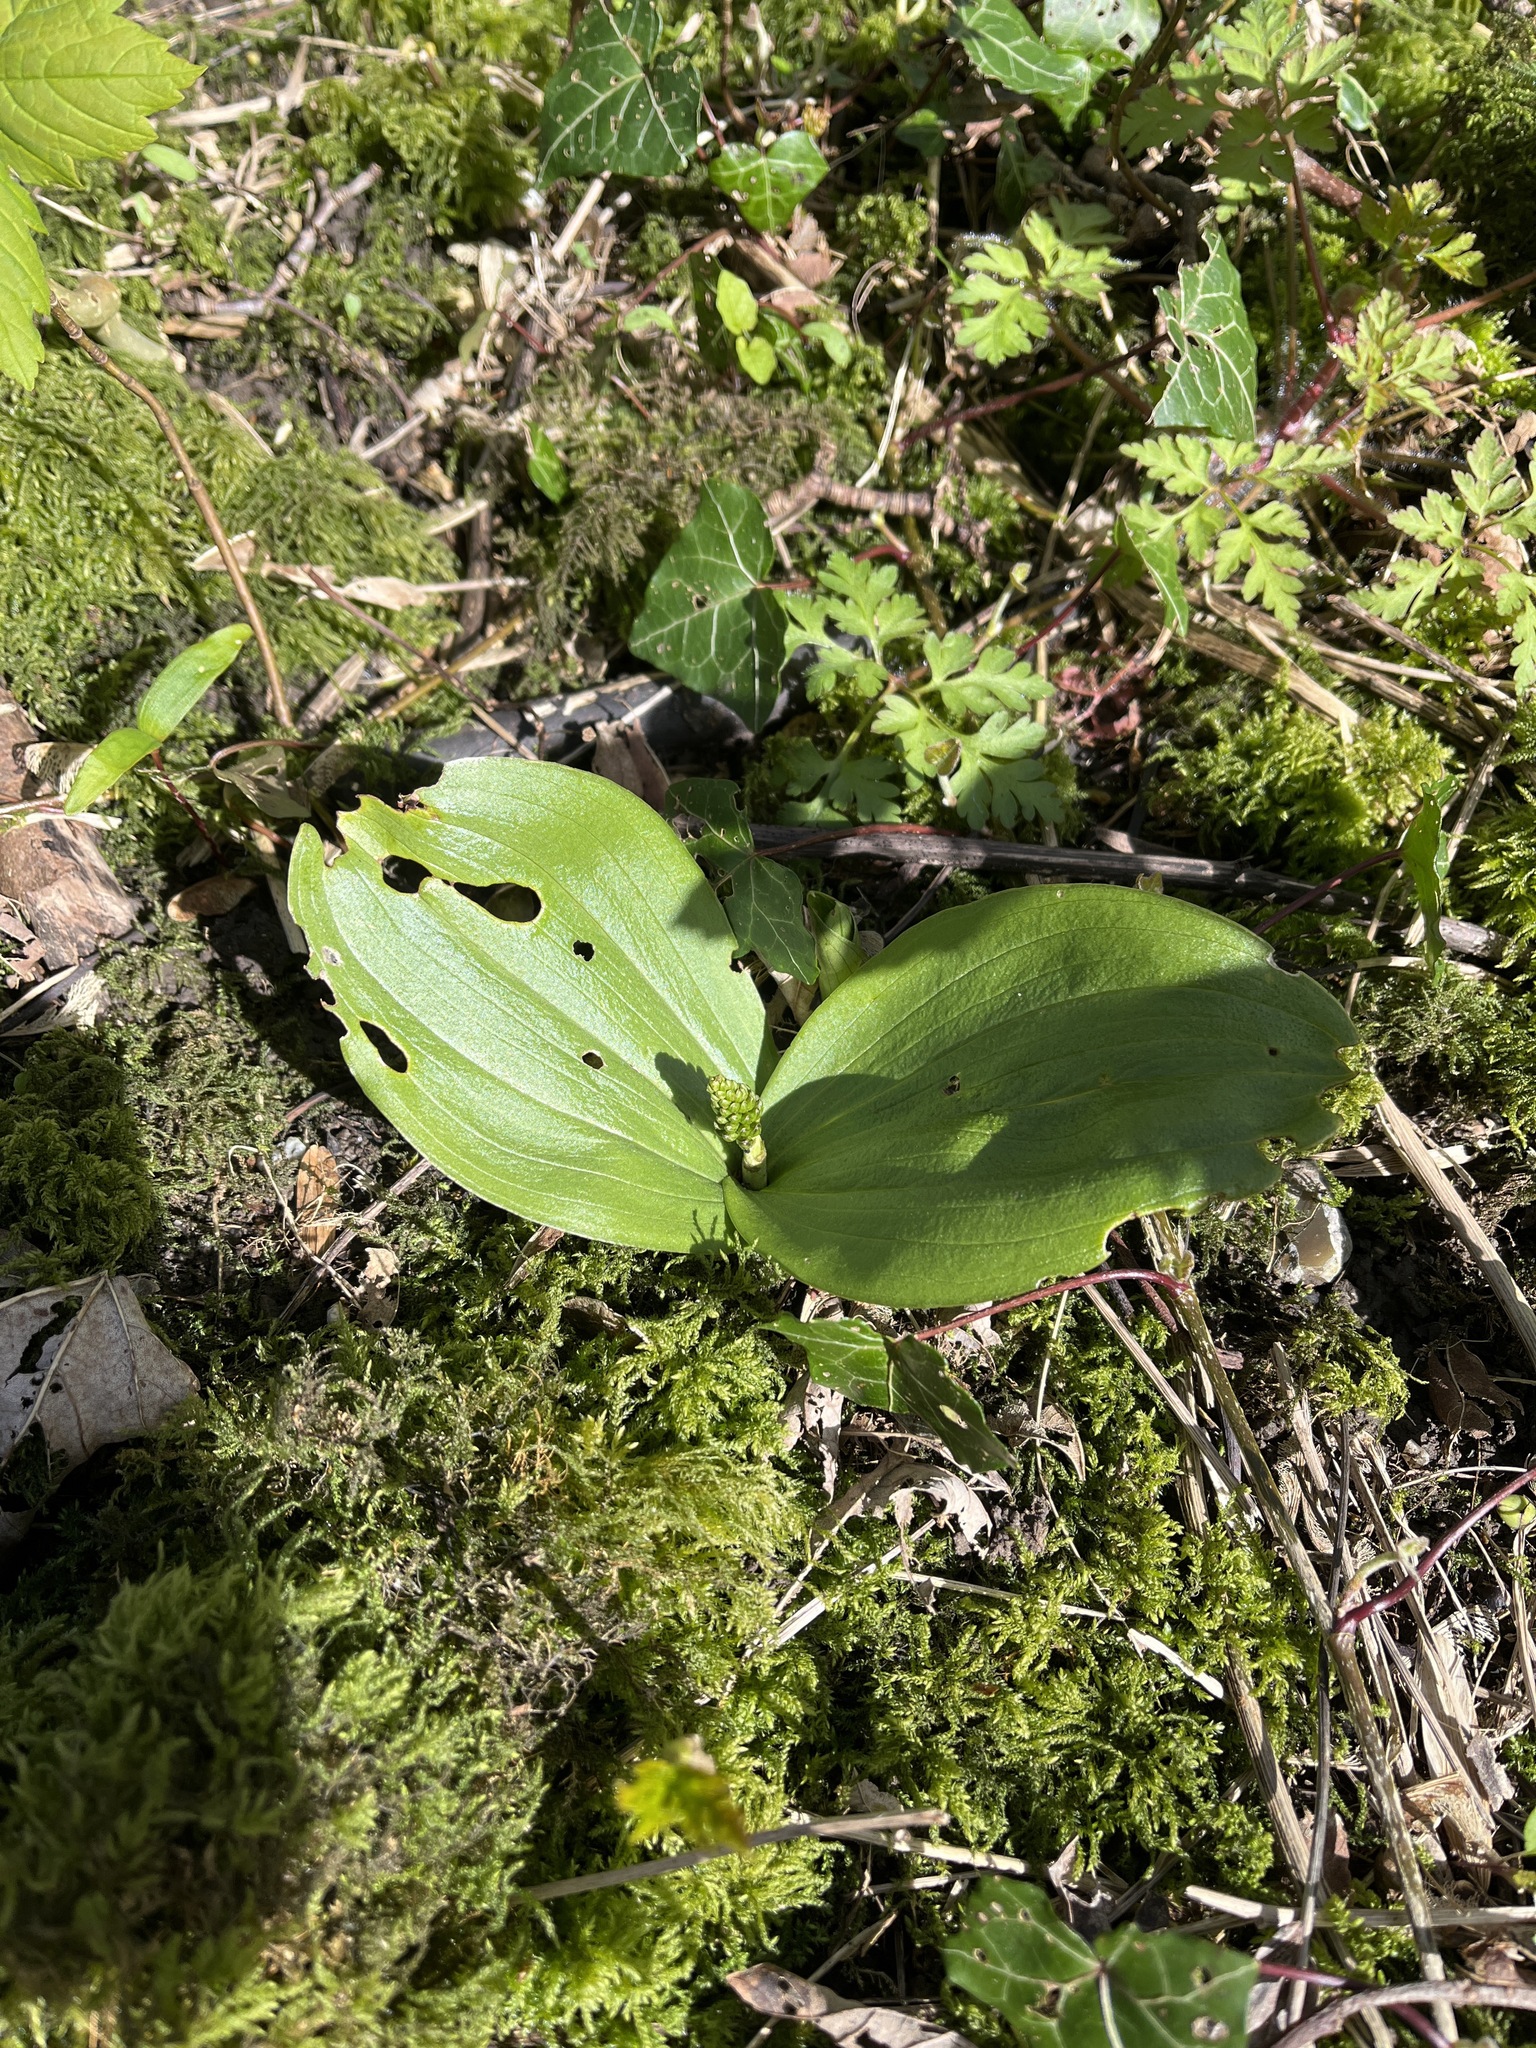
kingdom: Plantae
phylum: Tracheophyta
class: Liliopsida
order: Asparagales
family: Orchidaceae
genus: Neottia
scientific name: Neottia ovata
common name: Common twayblade
